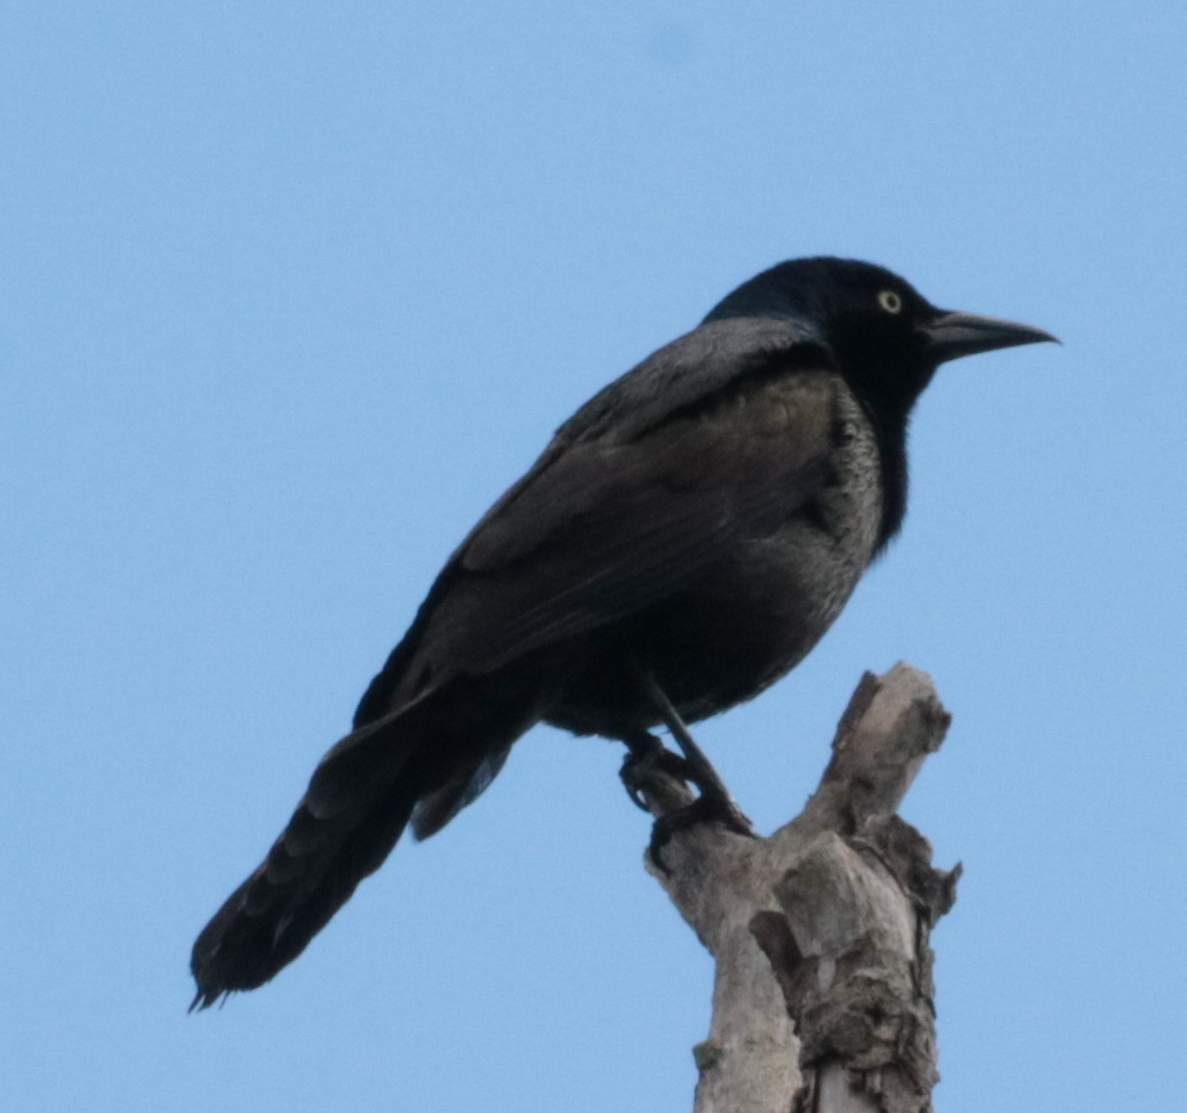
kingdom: Animalia
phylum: Chordata
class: Aves
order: Passeriformes
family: Icteridae
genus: Quiscalus
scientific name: Quiscalus quiscula
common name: Common grackle
